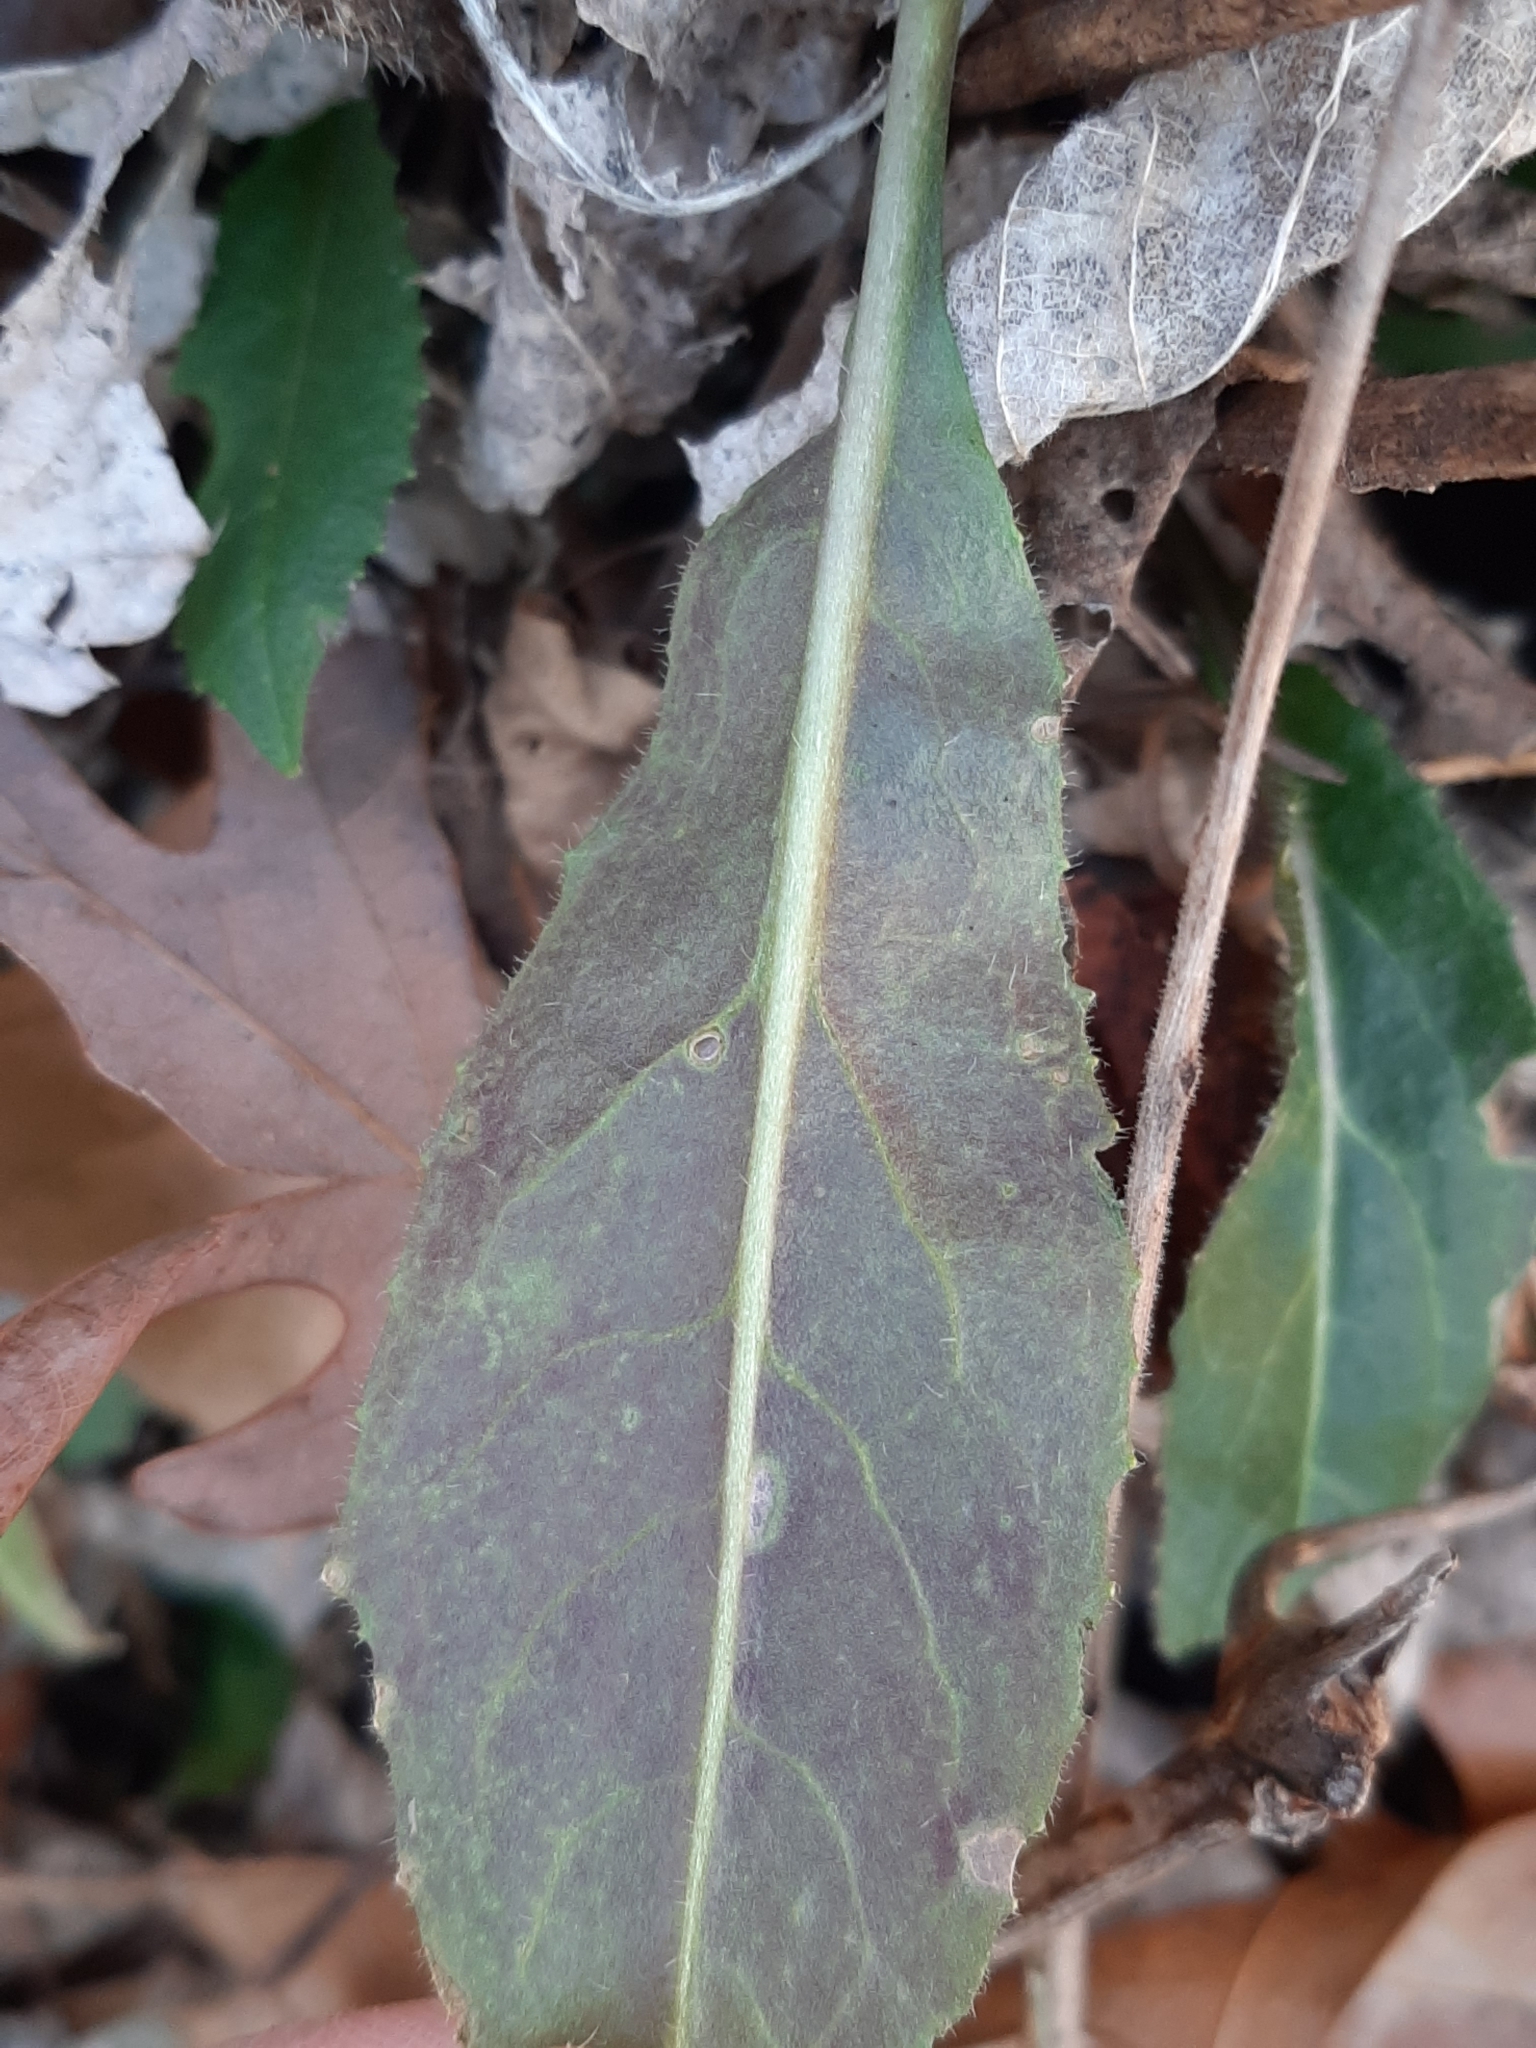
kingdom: Plantae
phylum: Tracheophyta
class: Magnoliopsida
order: Brassicales
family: Brassicaceae
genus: Hesperis
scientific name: Hesperis matronalis
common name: Dame's-violet
